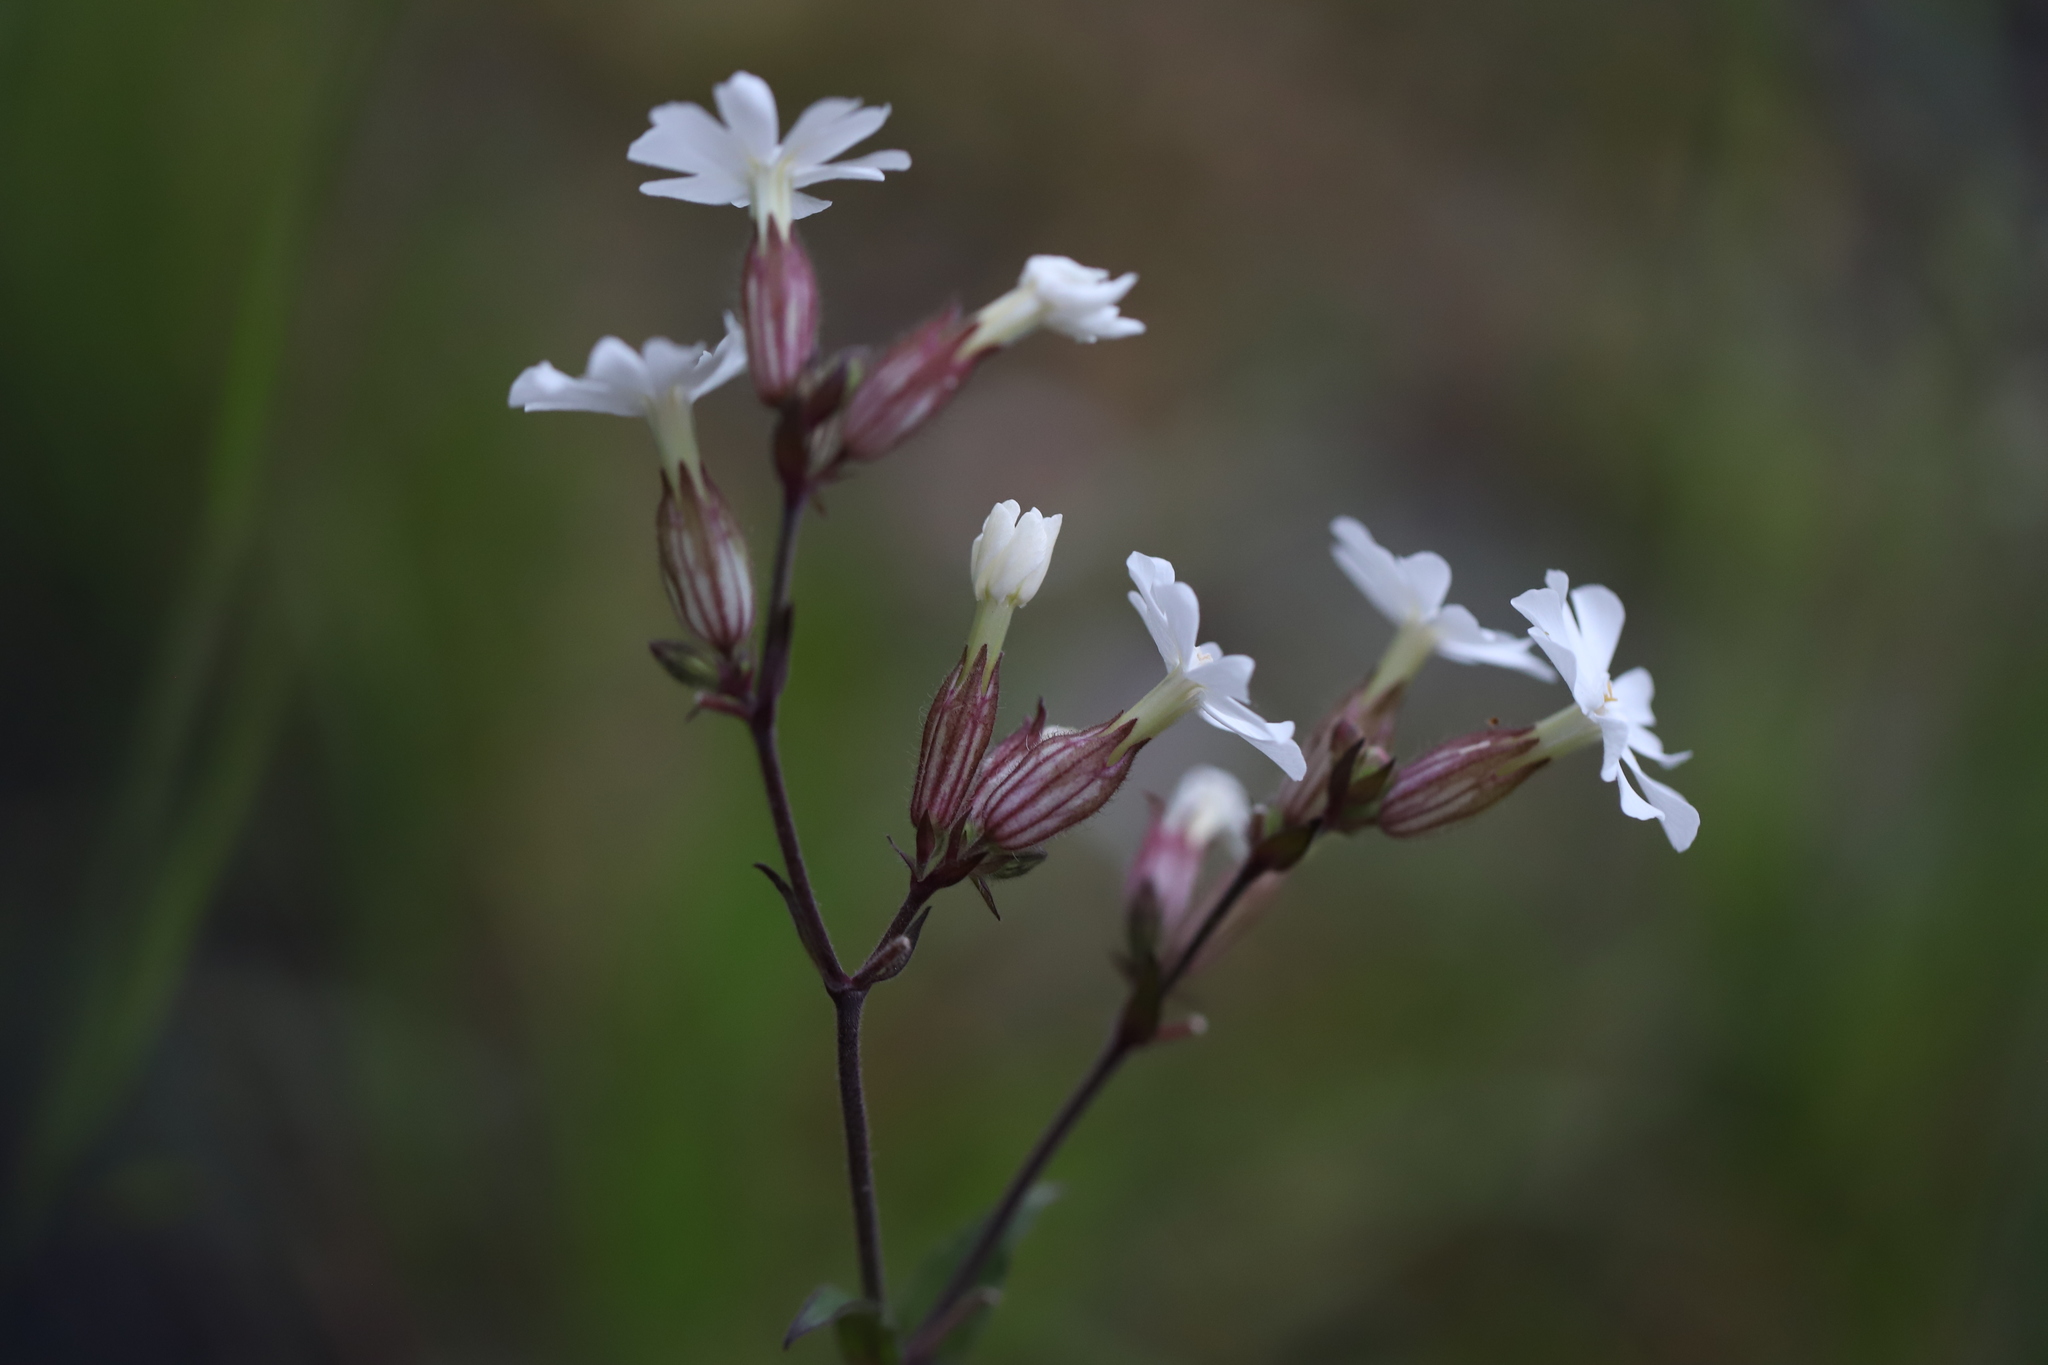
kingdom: Plantae
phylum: Tracheophyta
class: Magnoliopsida
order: Caryophyllales
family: Caryophyllaceae
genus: Silene
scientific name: Silene latifolia
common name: White campion
